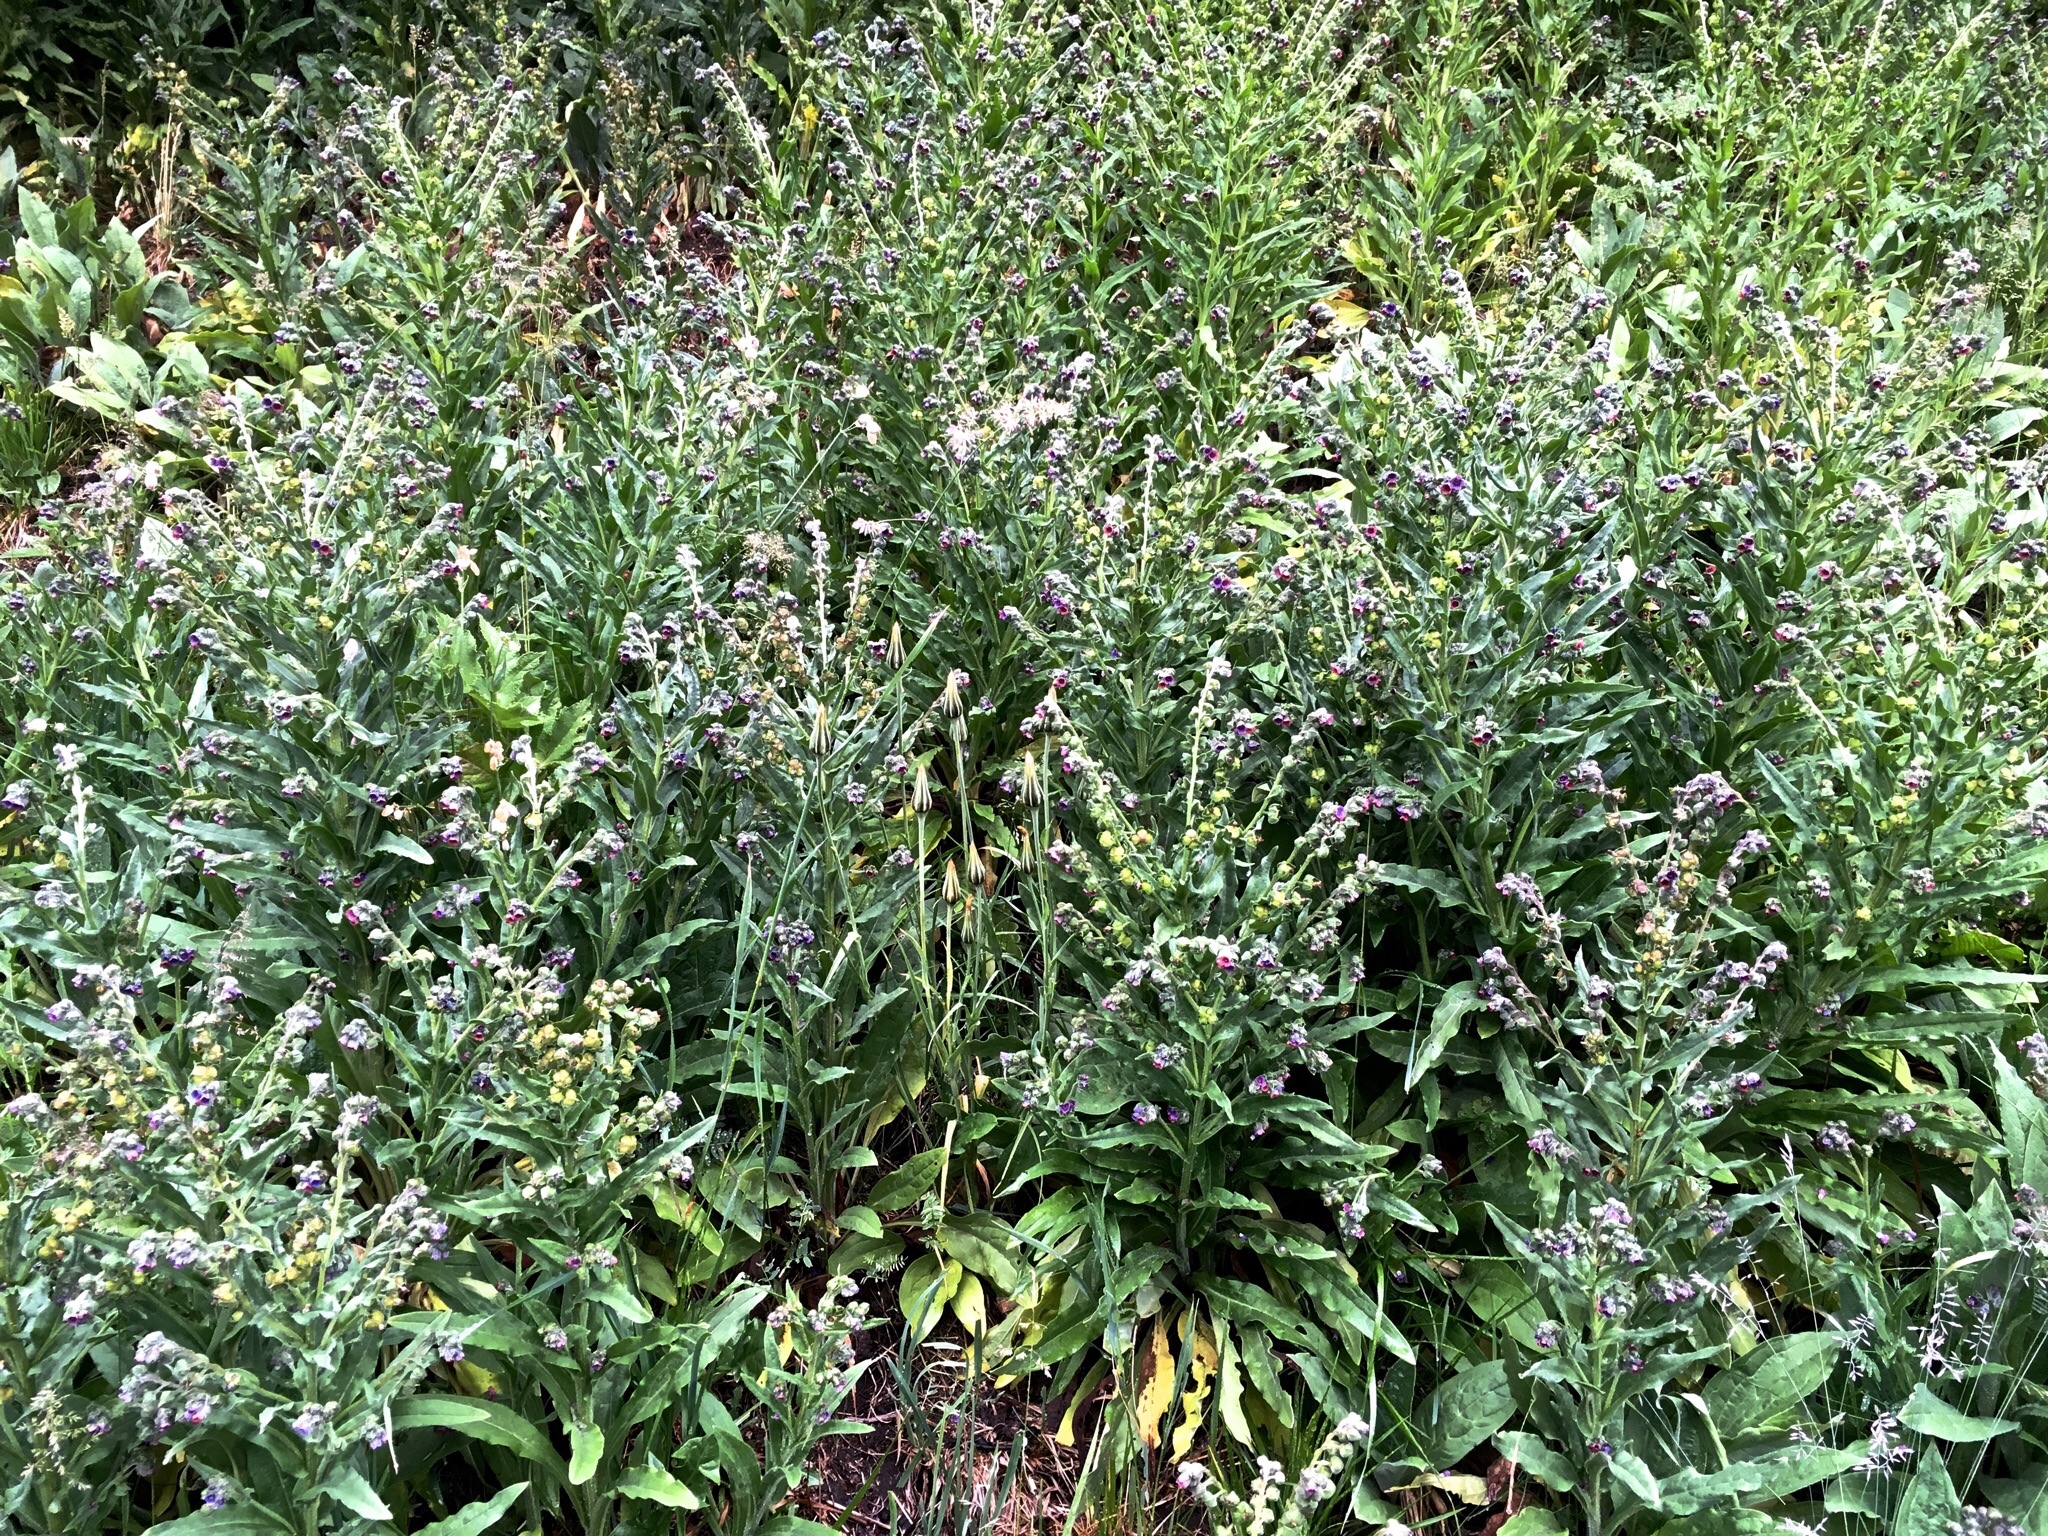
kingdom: Plantae
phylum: Tracheophyta
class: Magnoliopsida
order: Boraginales
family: Boraginaceae
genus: Cynoglossum
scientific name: Cynoglossum officinale
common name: Hound's-tongue
